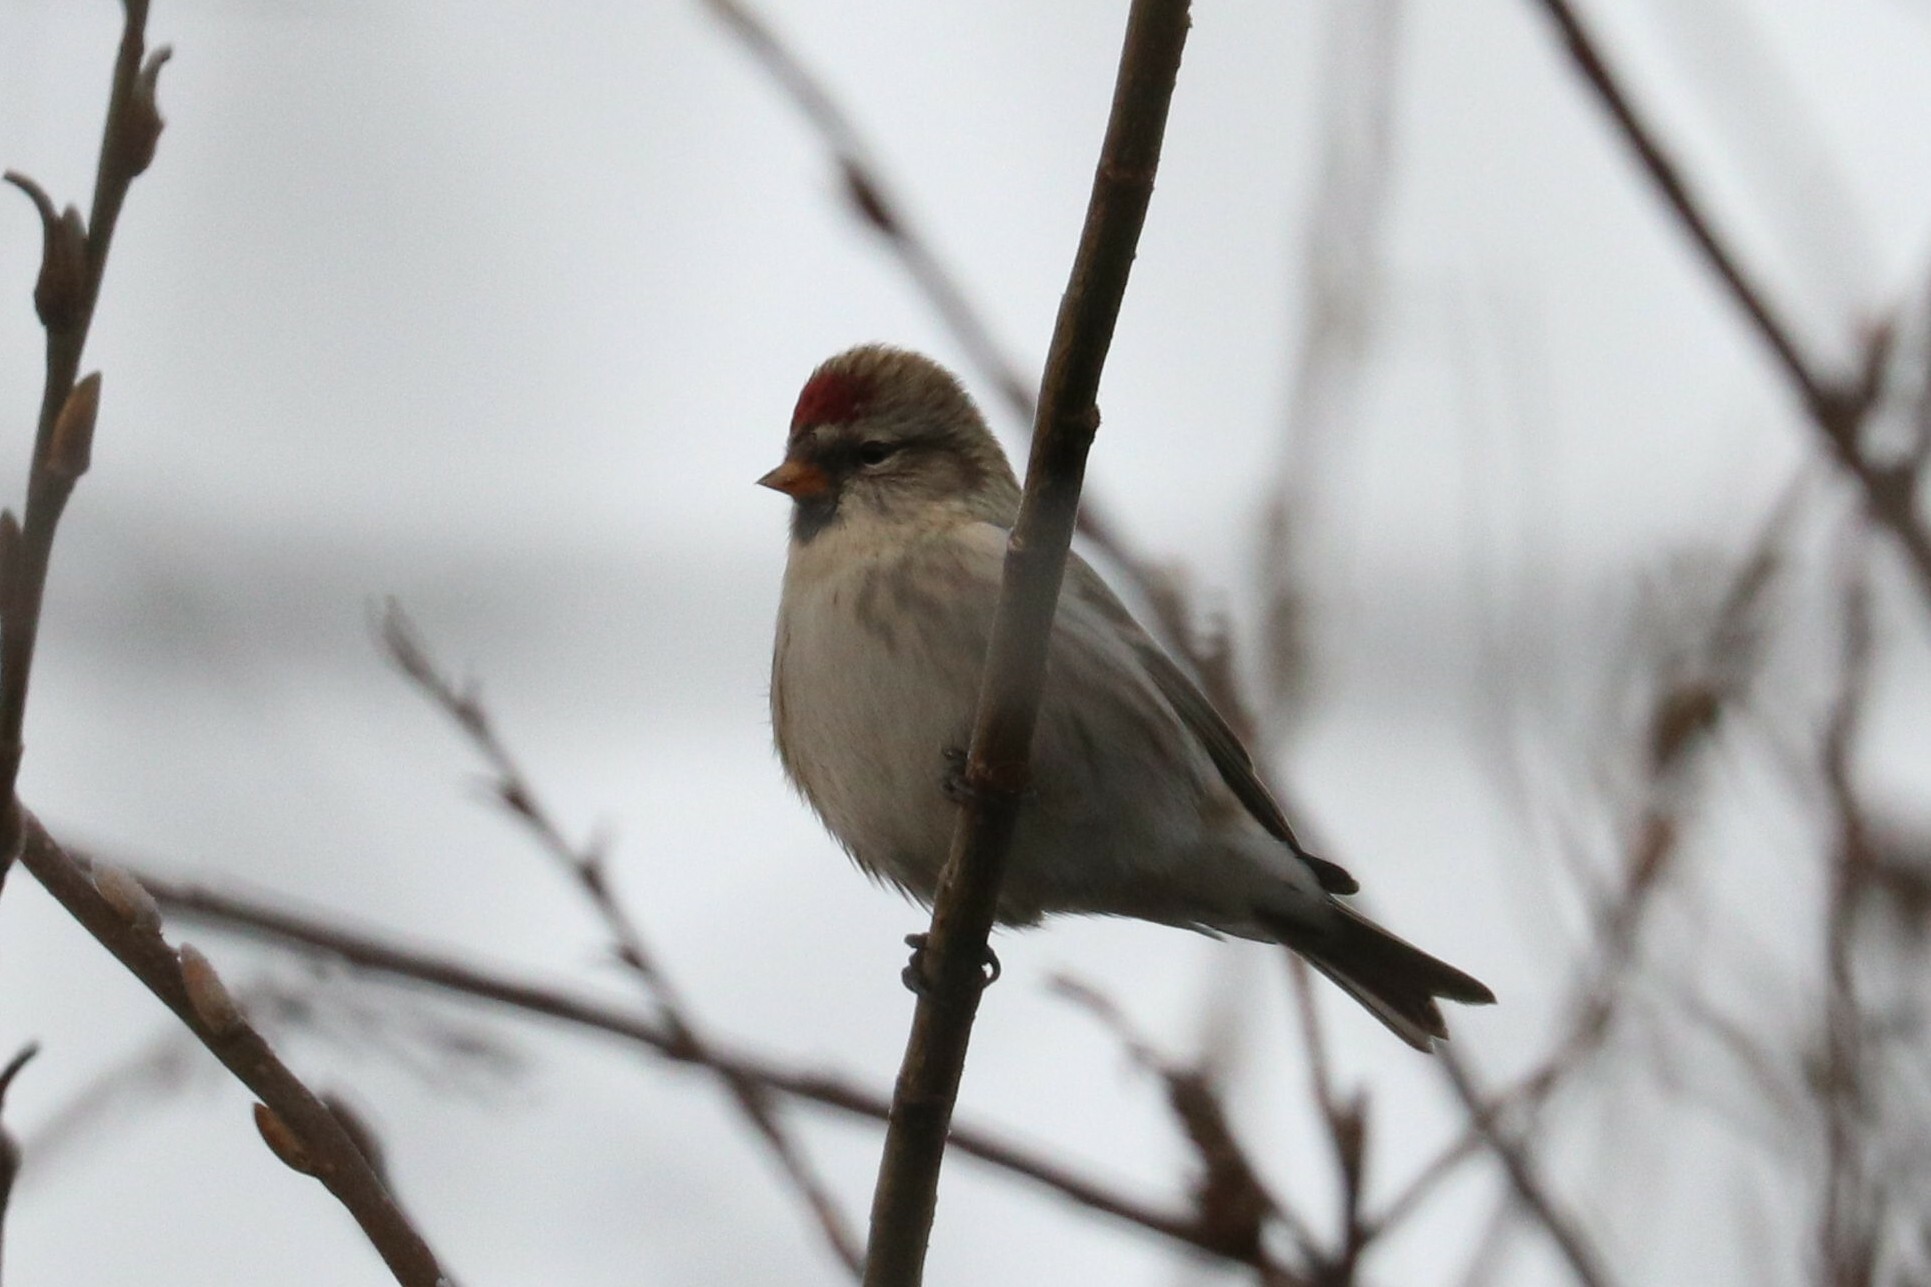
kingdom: Animalia
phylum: Chordata
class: Aves
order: Passeriformes
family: Fringillidae
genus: Acanthis
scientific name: Acanthis flammea
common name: Common redpoll
